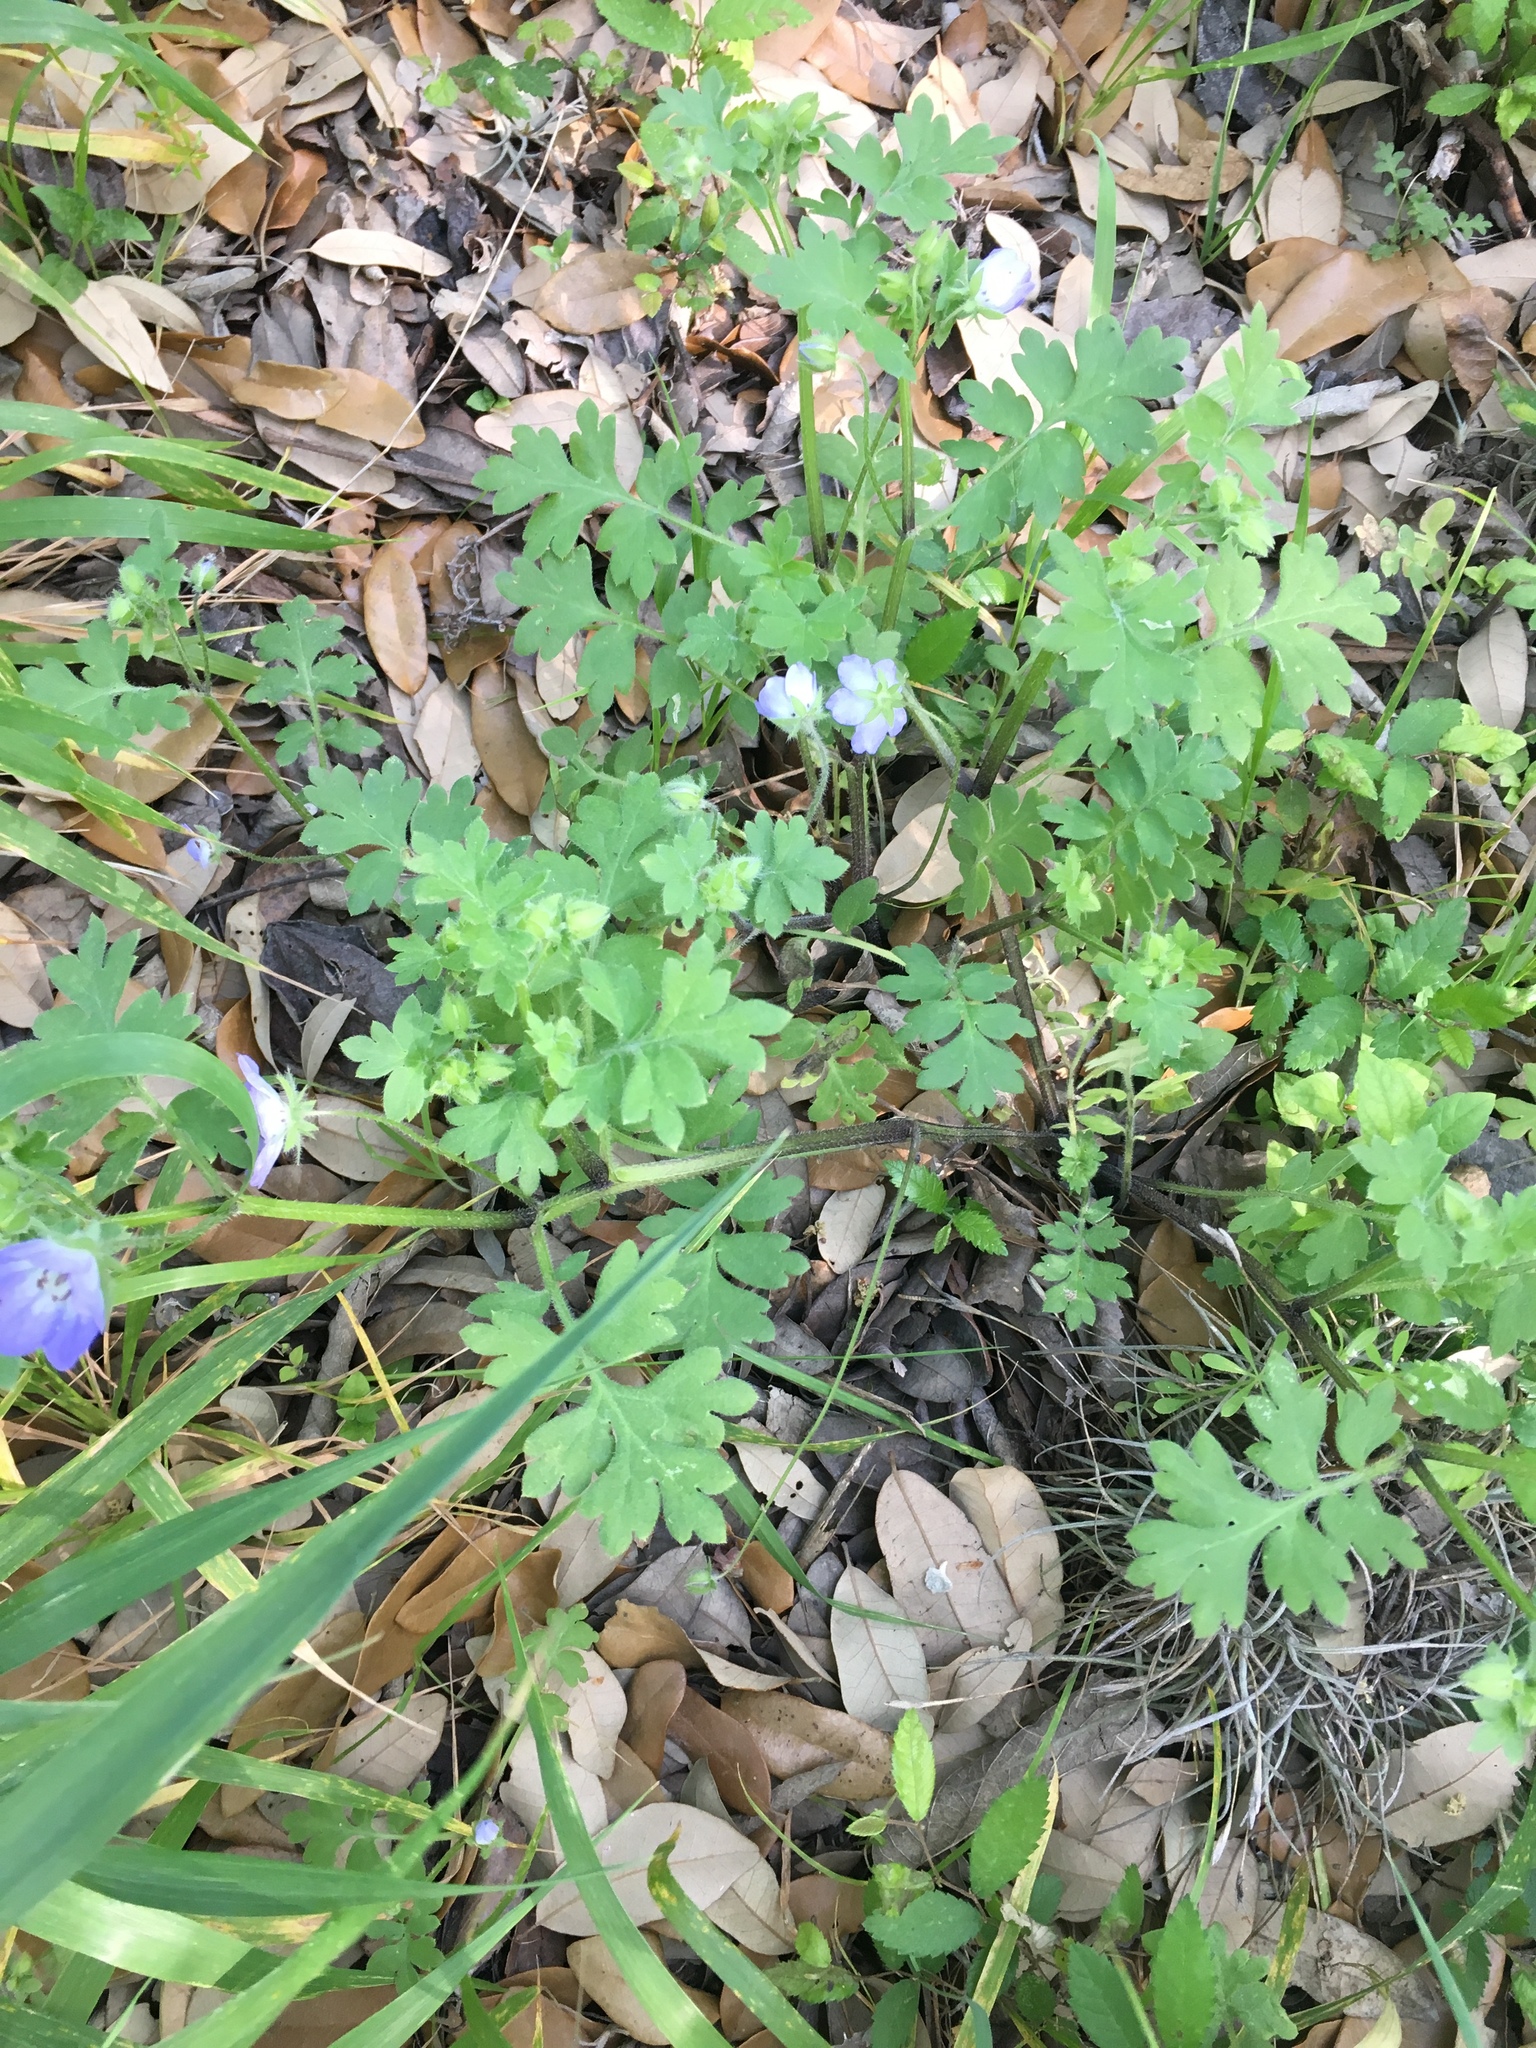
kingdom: Plantae
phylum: Tracheophyta
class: Magnoliopsida
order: Boraginales
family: Hydrophyllaceae
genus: Nemophila
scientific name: Nemophila phacelioides
